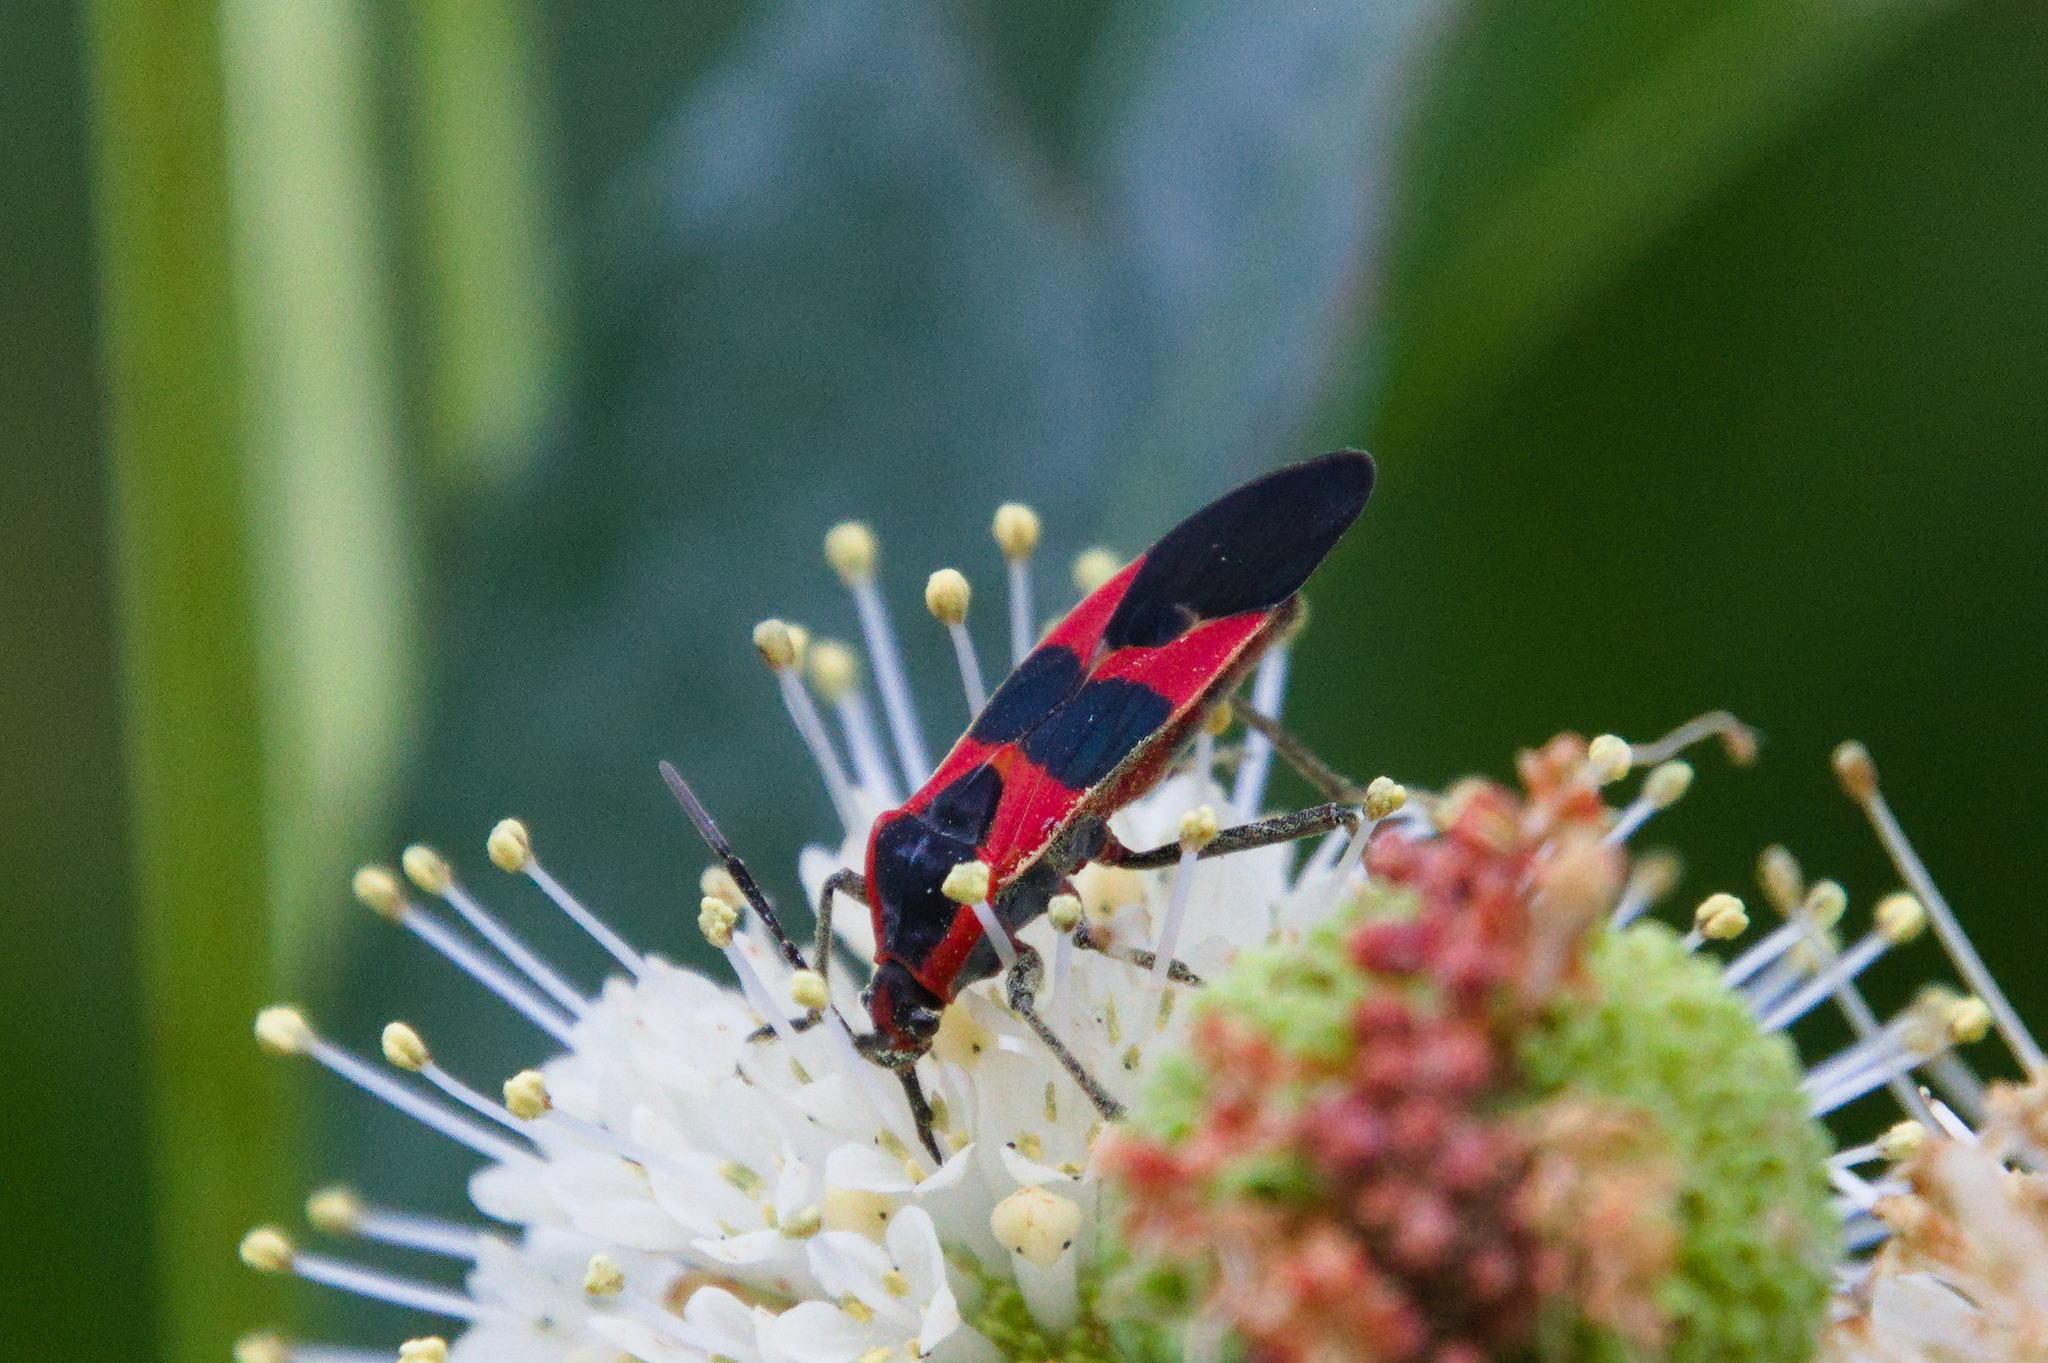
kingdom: Animalia
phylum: Arthropoda
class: Insecta
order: Hemiptera
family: Lygaeidae
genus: Oncopeltus
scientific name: Oncopeltus fasciatus
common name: Large milkweed bug
